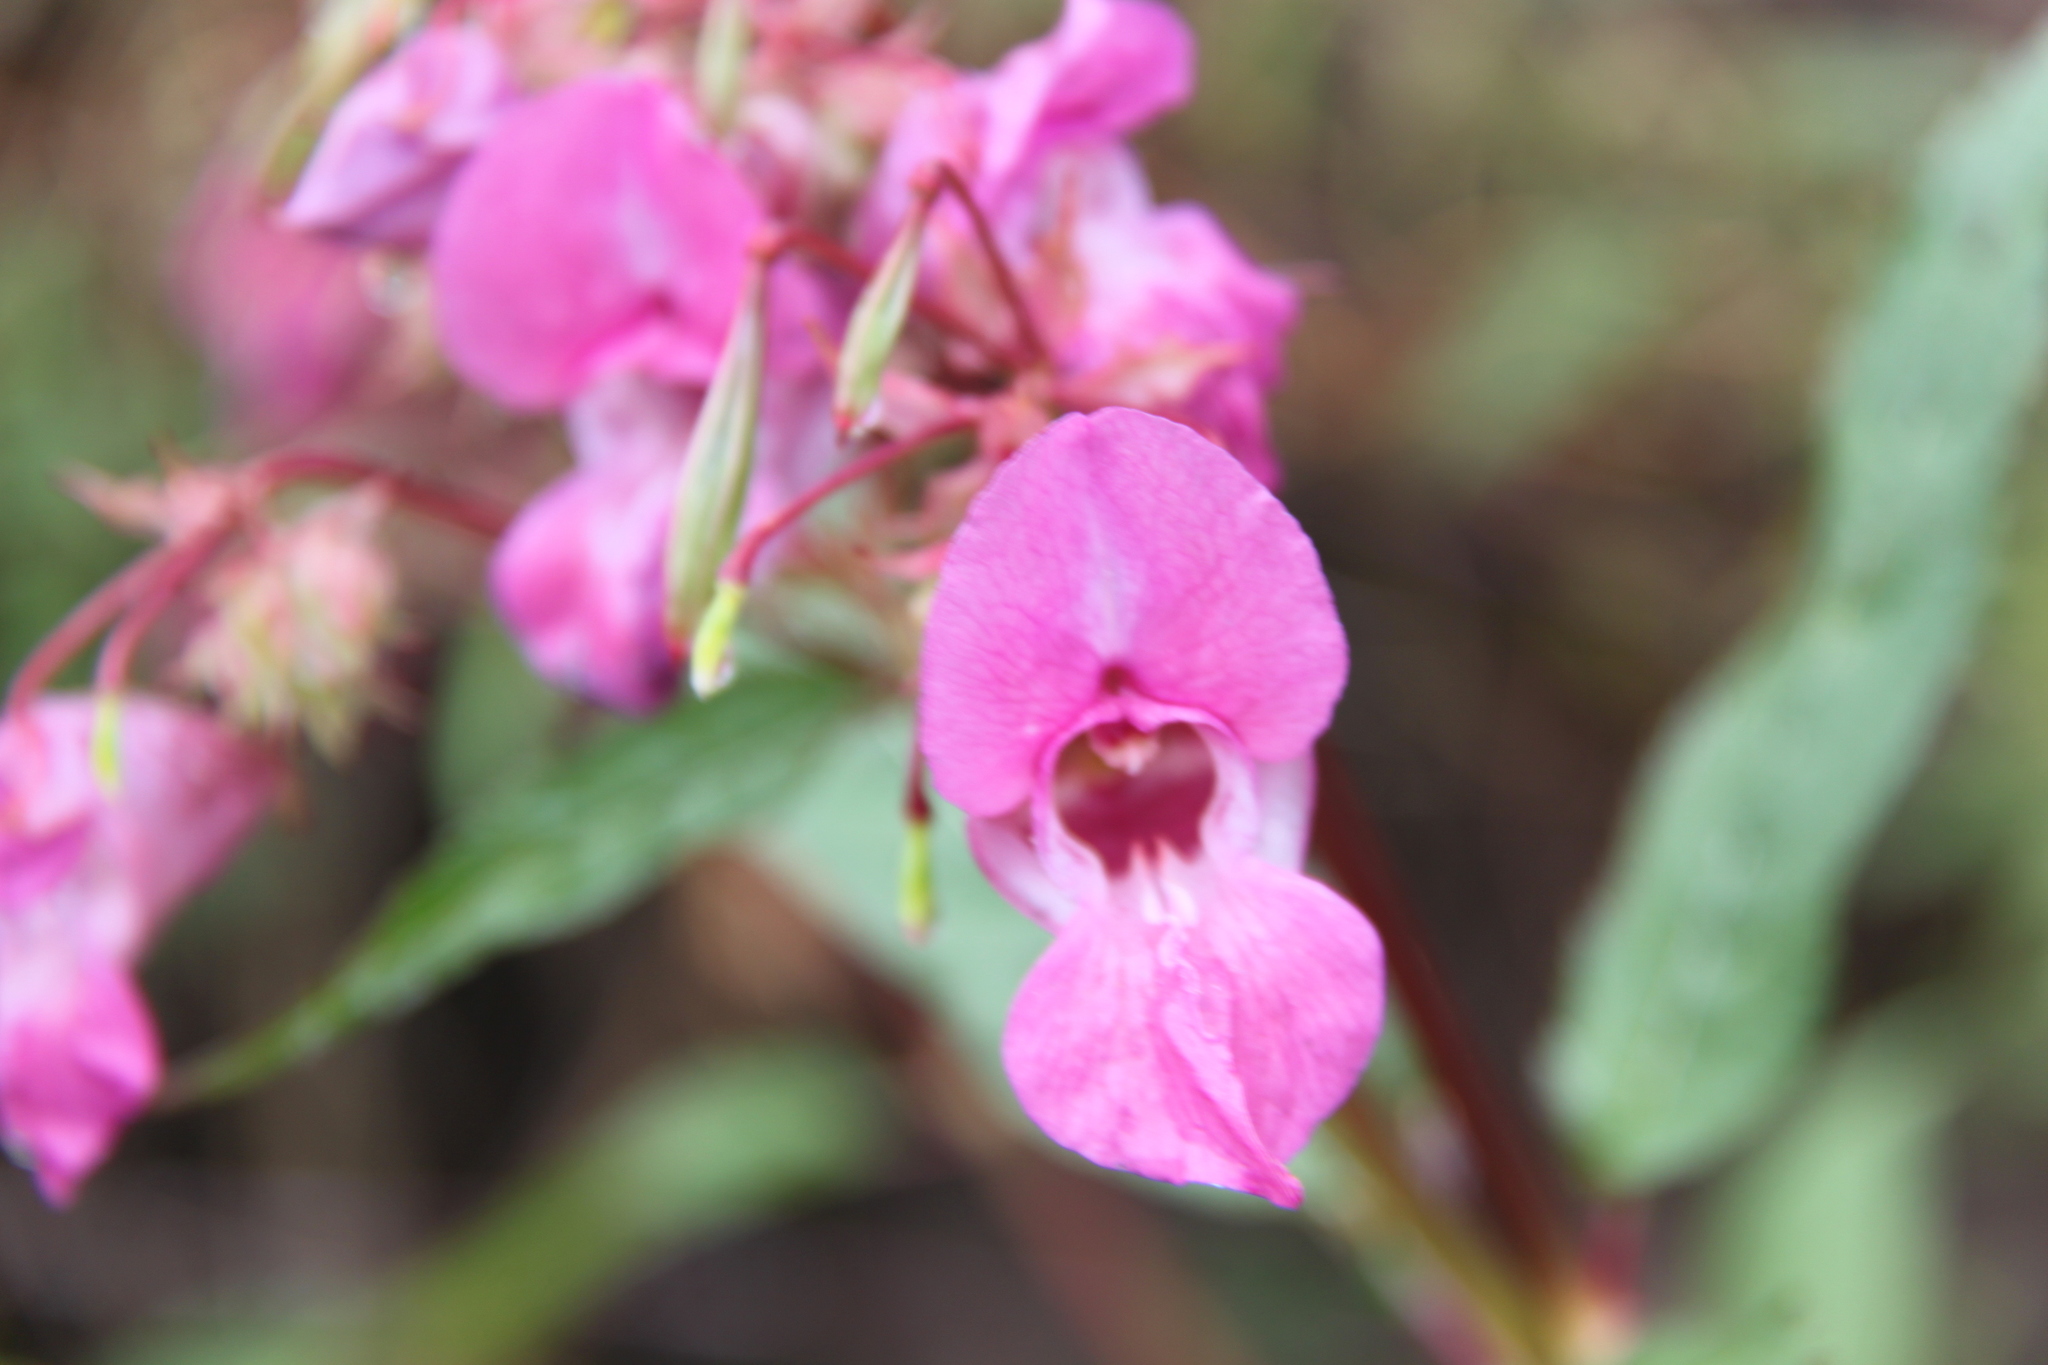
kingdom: Plantae
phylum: Tracheophyta
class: Magnoliopsida
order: Ericales
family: Balsaminaceae
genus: Impatiens
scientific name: Impatiens glandulifera
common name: Himalayan balsam
